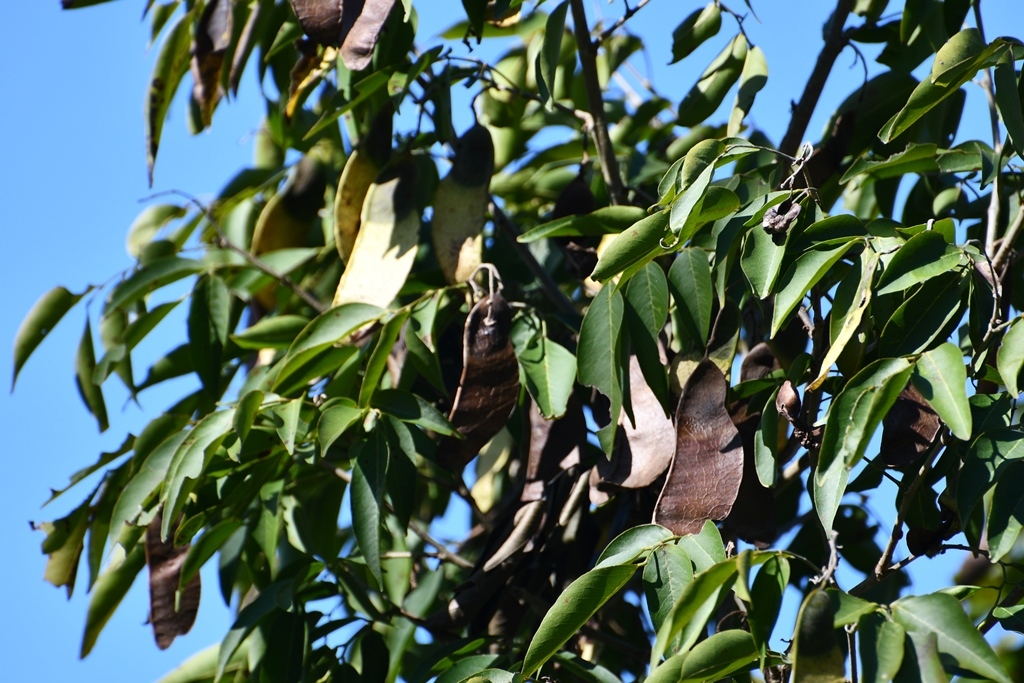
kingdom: Plantae
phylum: Tracheophyta
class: Magnoliopsida
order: Fabales
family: Fabaceae
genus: Lonchocarpus
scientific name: Lonchocarpus sumiderensis
